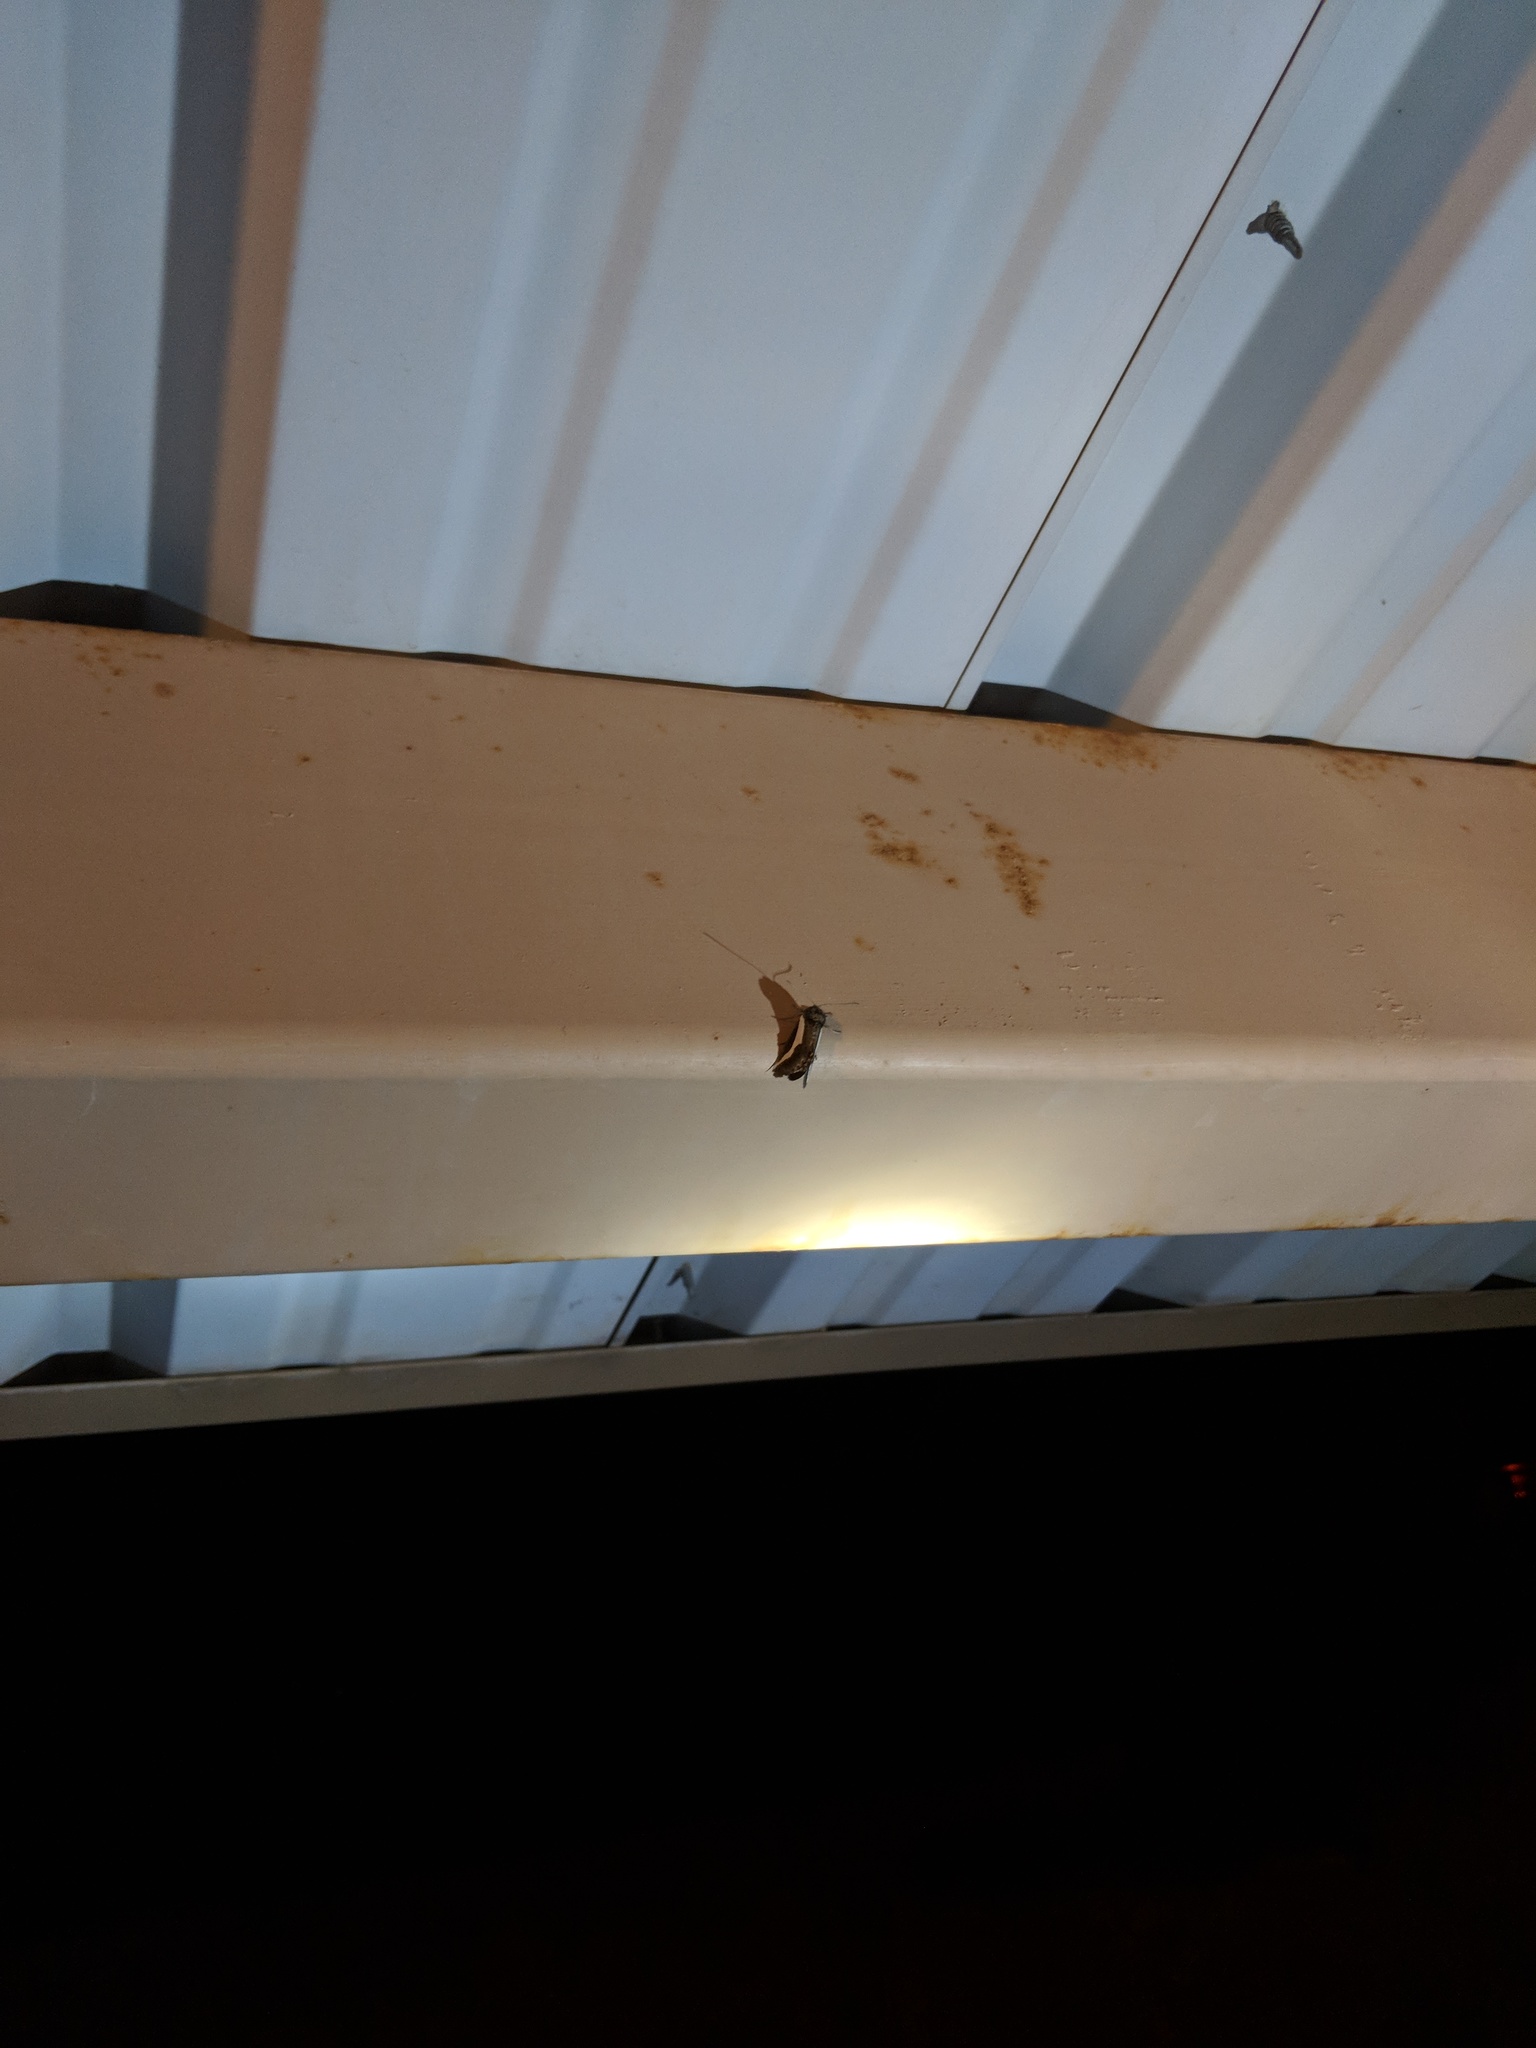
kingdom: Animalia
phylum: Arthropoda
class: Insecta
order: Lepidoptera
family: Noctuidae
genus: Euscirrhopterus
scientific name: Euscirrhopterus cosyra
